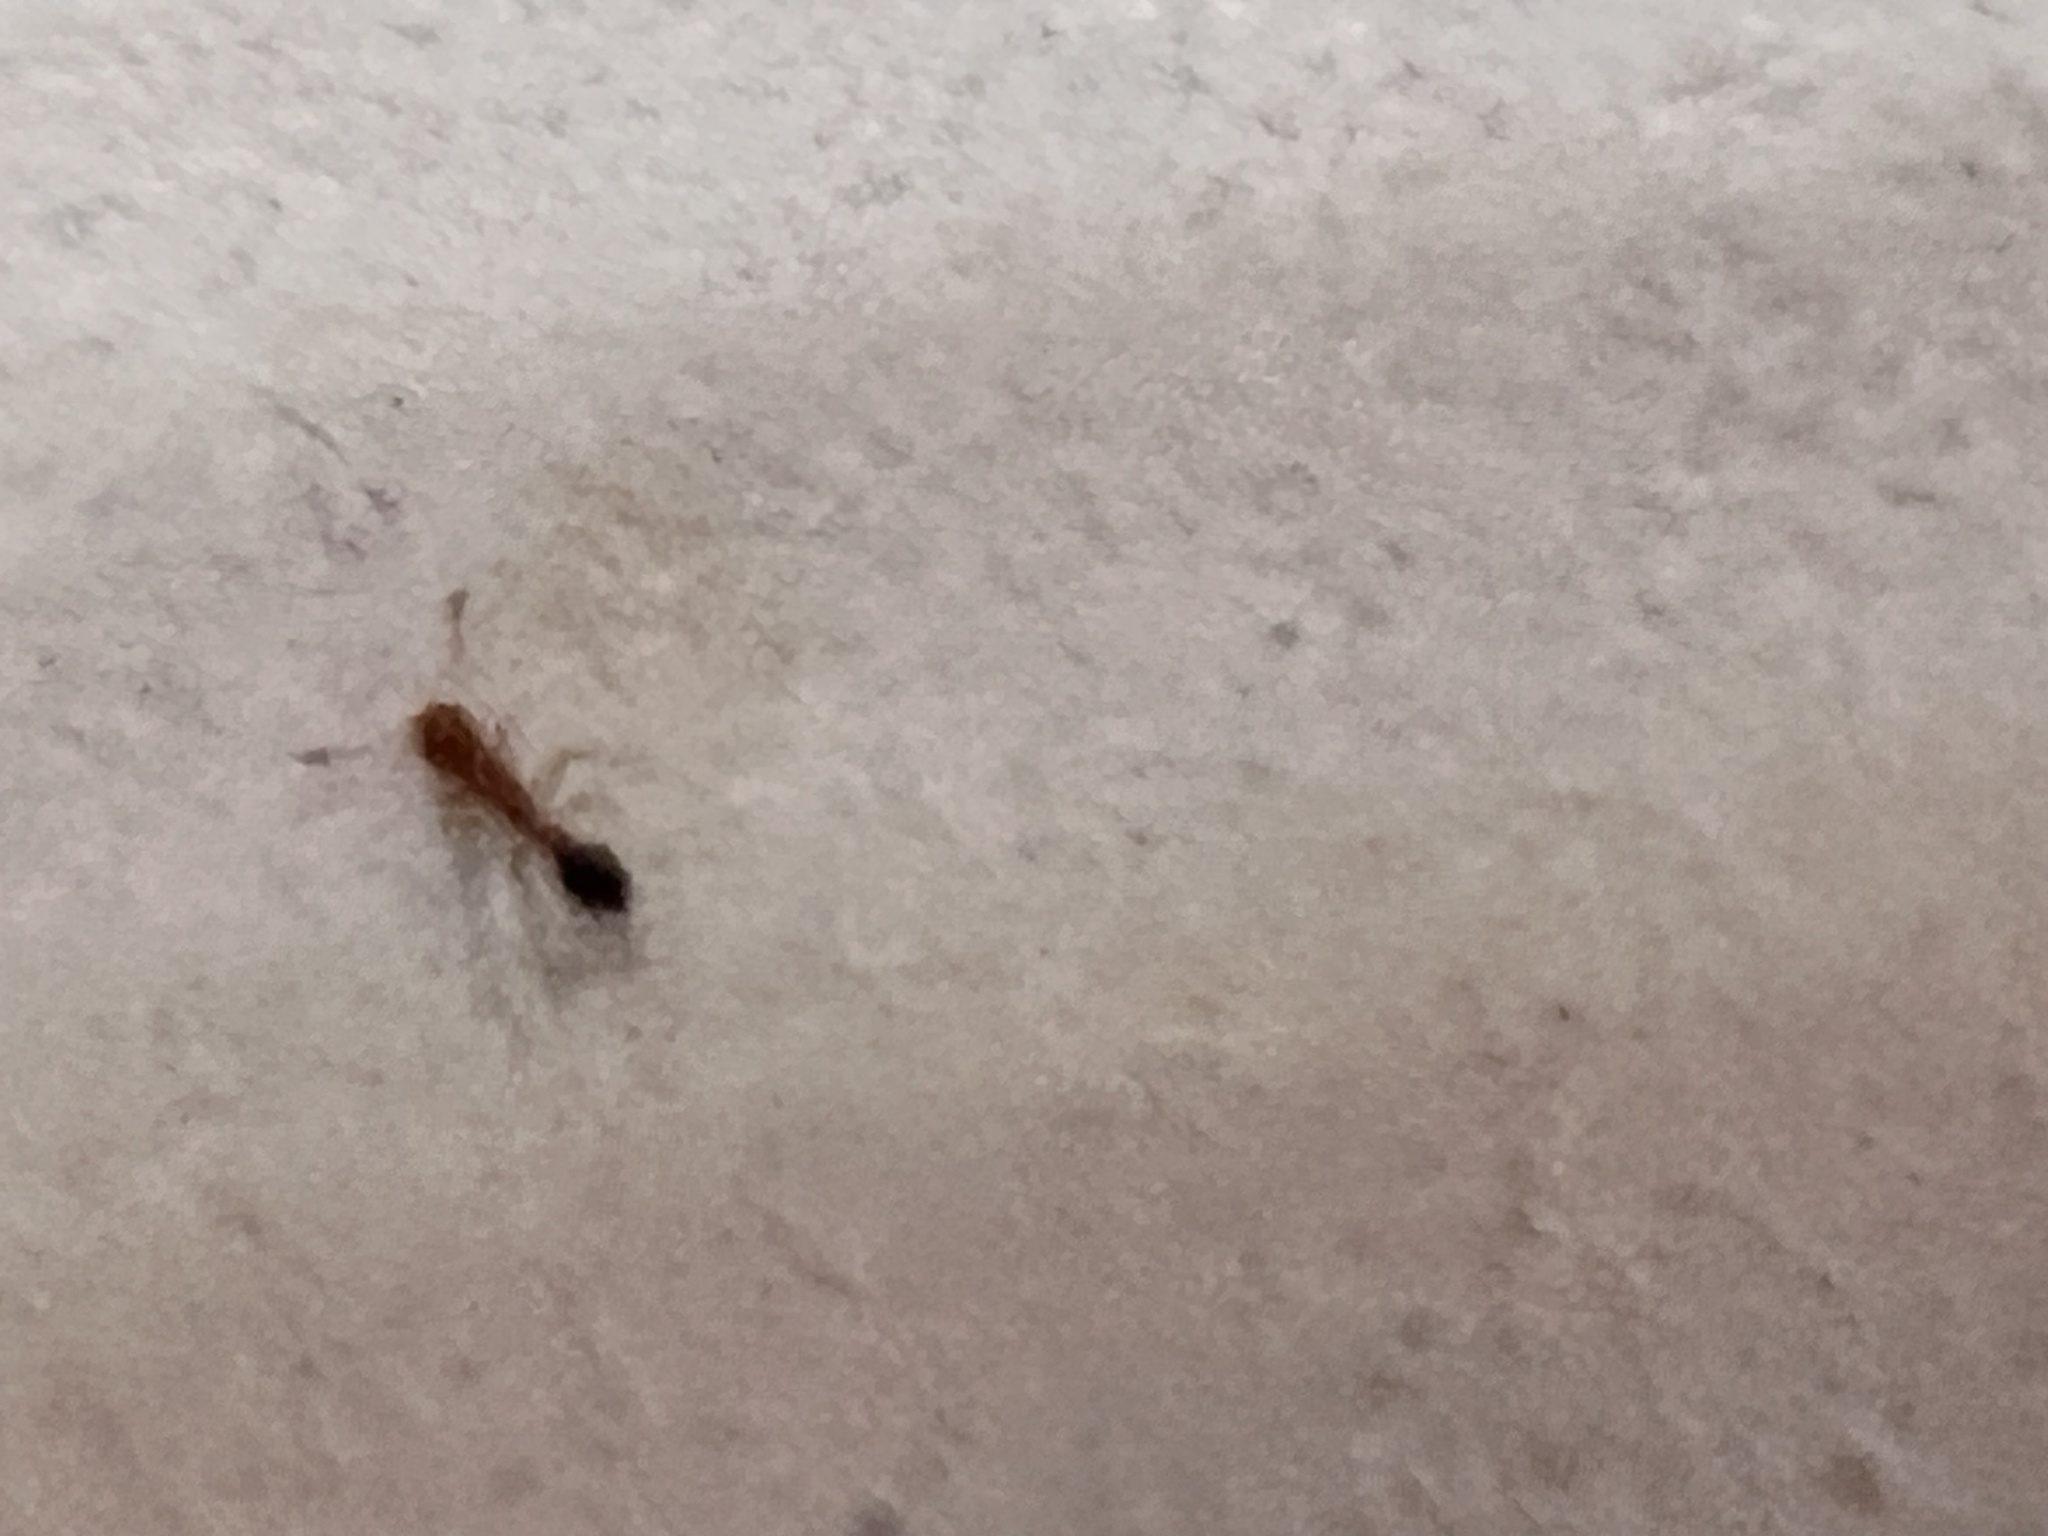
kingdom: Animalia
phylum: Arthropoda
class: Insecta
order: Hymenoptera
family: Formicidae
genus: Monomorium
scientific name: Monomorium destructor
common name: Destructive trailing ant
